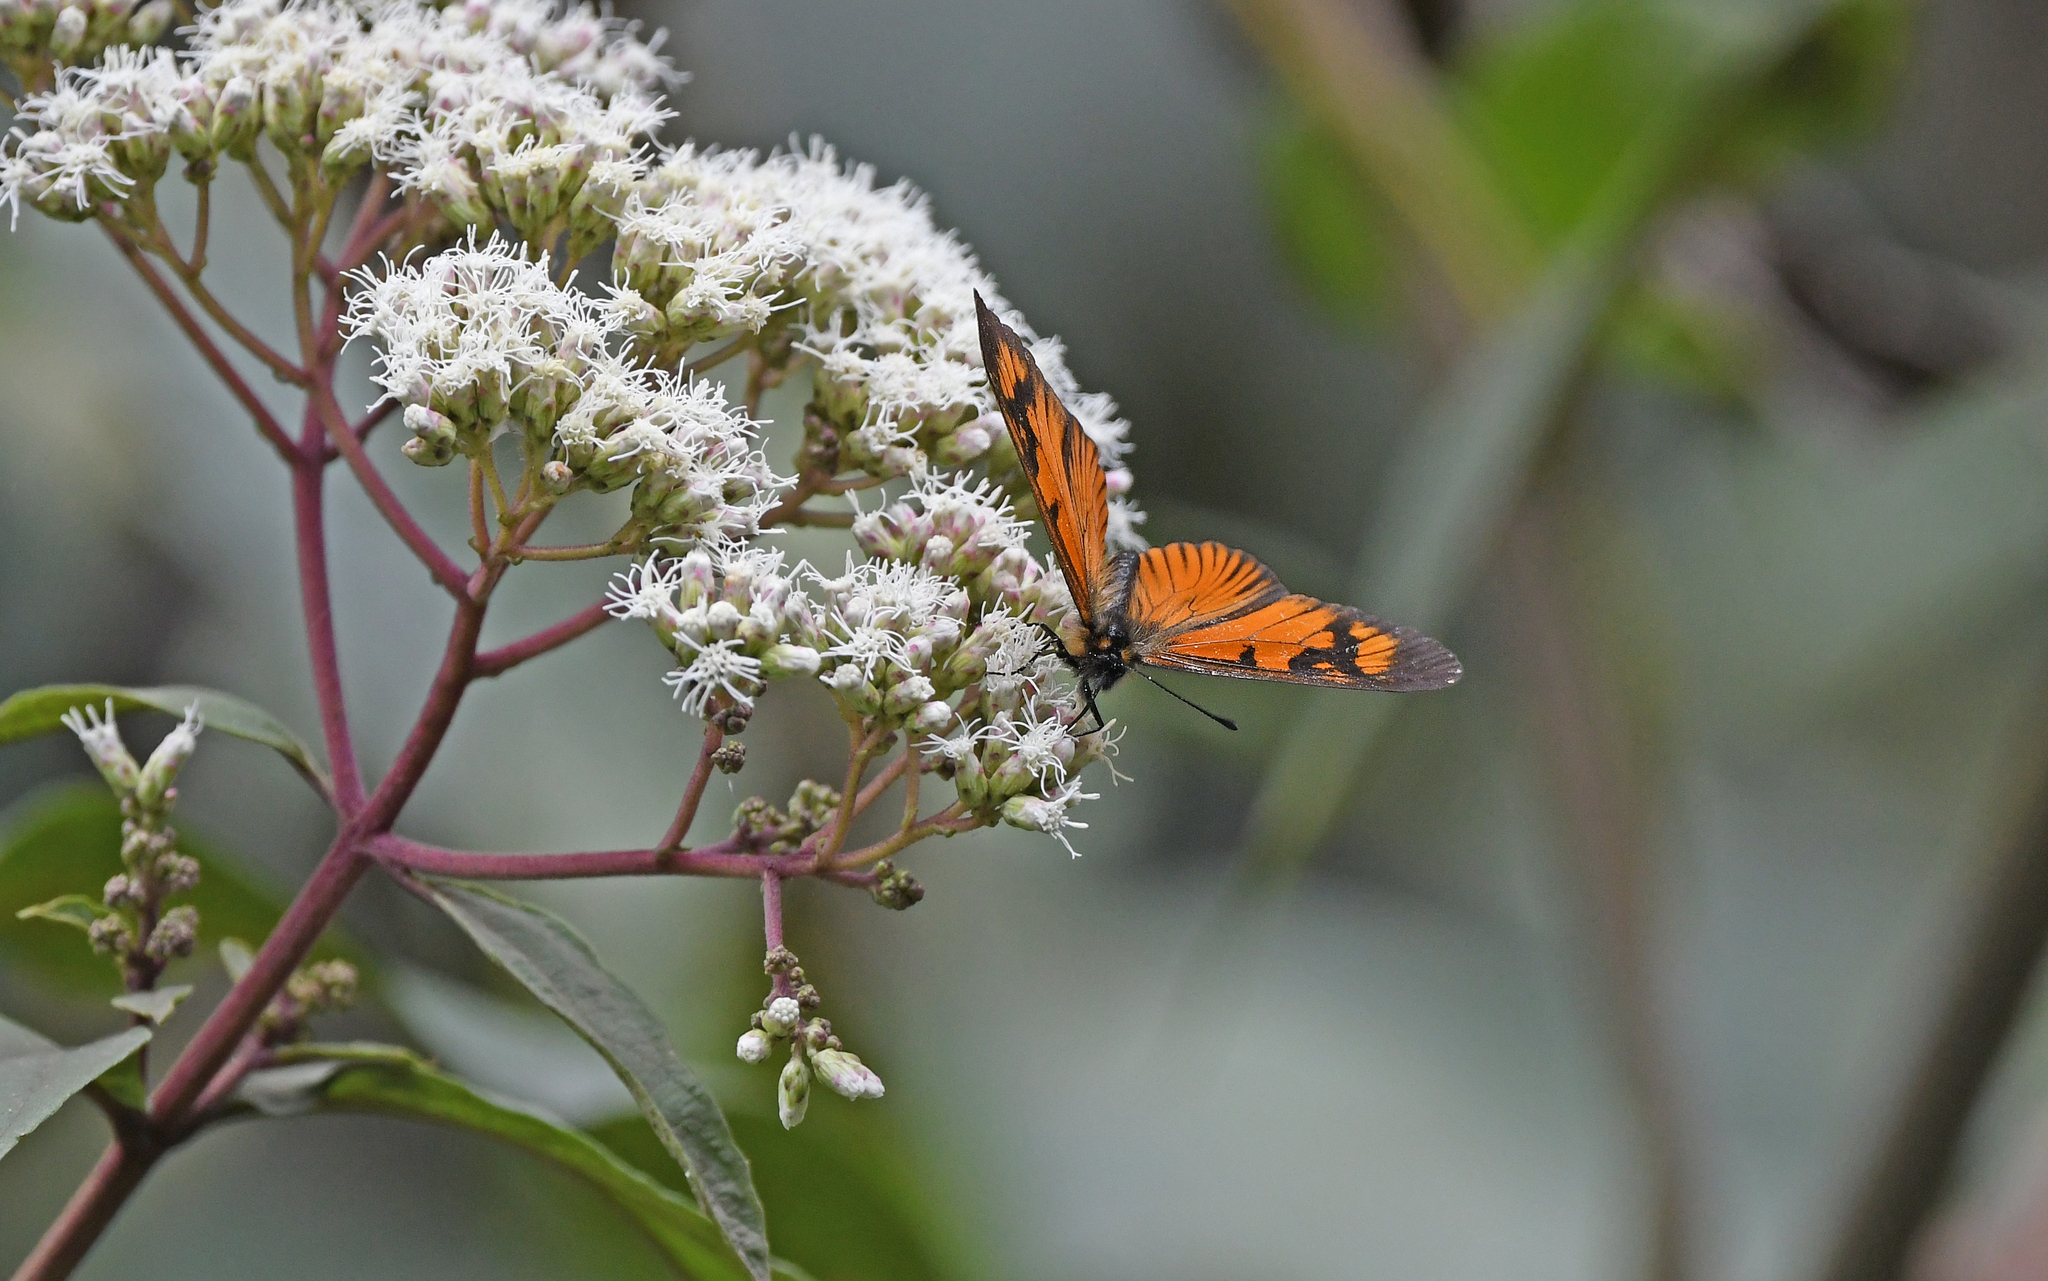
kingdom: Animalia
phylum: Arthropoda
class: Insecta
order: Lepidoptera
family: Nymphalidae
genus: Acraea
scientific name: Acraea Altinote eresia
